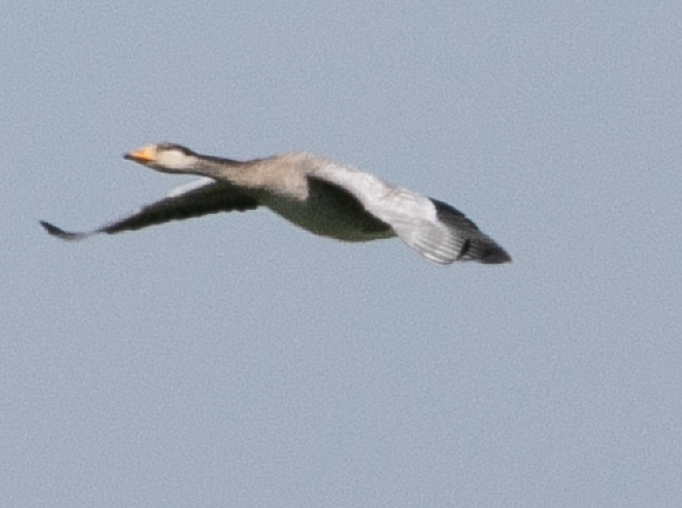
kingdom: Animalia
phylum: Chordata
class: Aves
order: Anseriformes
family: Anatidae
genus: Anser
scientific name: Anser
